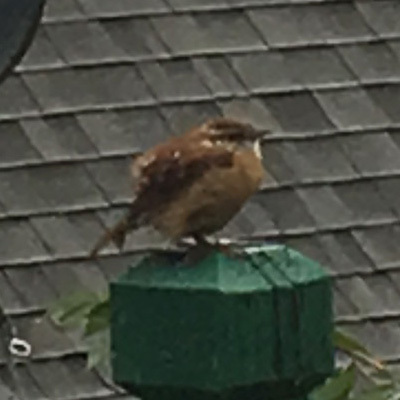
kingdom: Animalia
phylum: Chordata
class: Aves
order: Passeriformes
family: Troglodytidae
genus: Thryothorus
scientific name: Thryothorus ludovicianus
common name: Carolina wren
